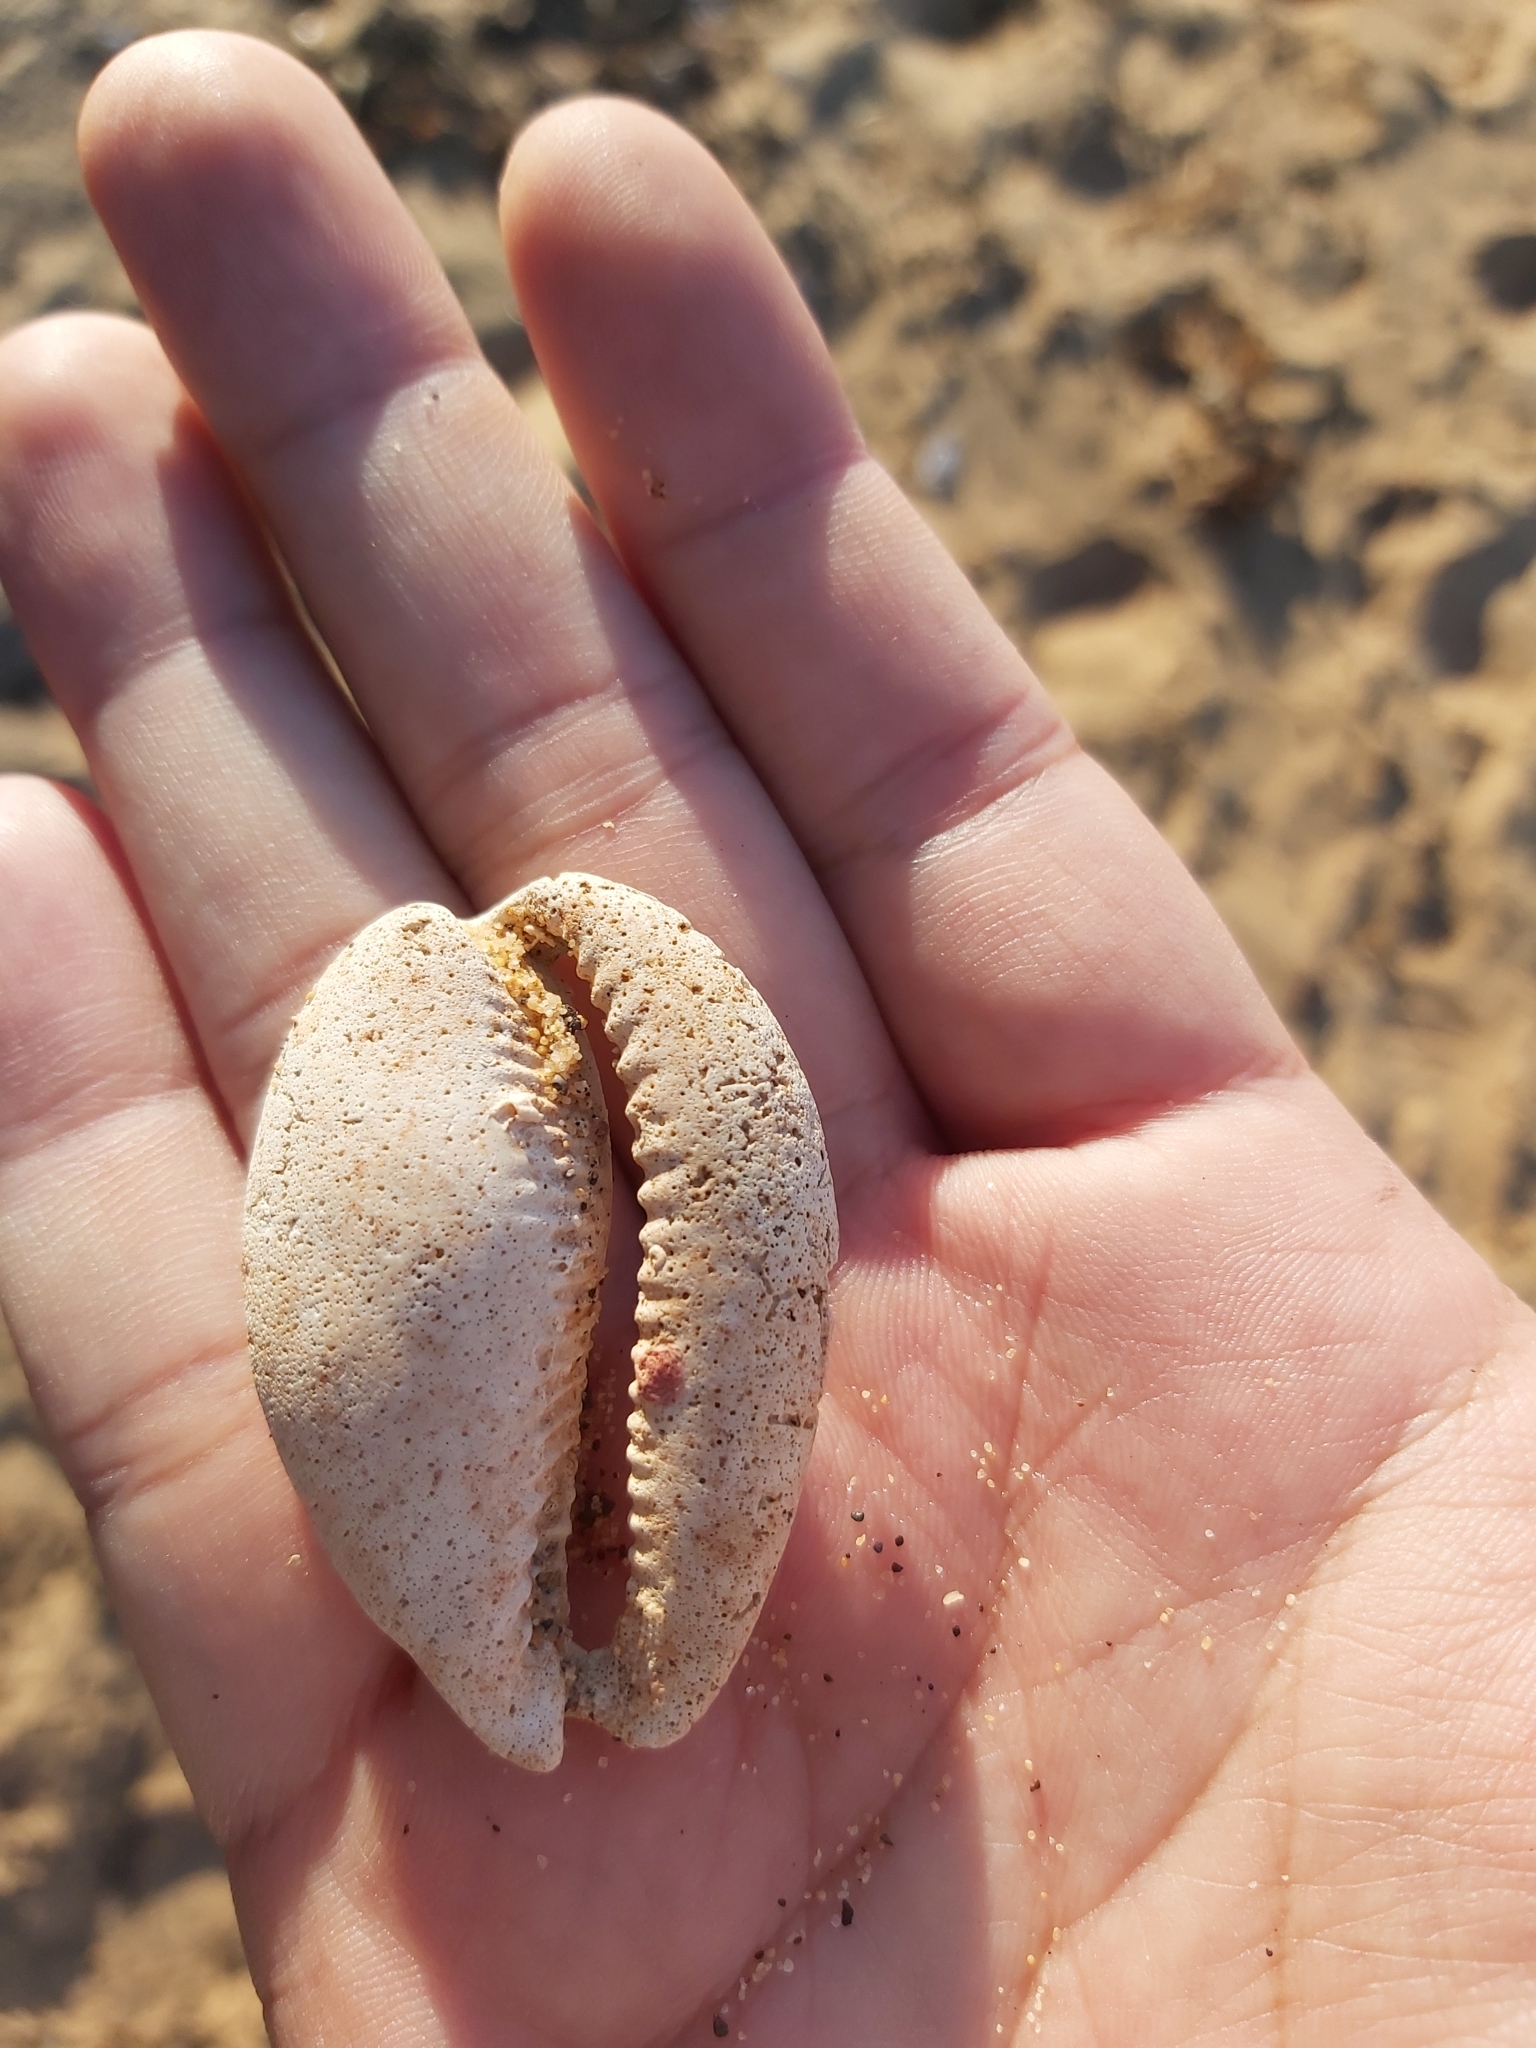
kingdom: Animalia
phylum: Mollusca
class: Gastropoda
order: Littorinimorpha
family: Cypraeidae
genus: Lyncina
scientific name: Lyncina vitellus
